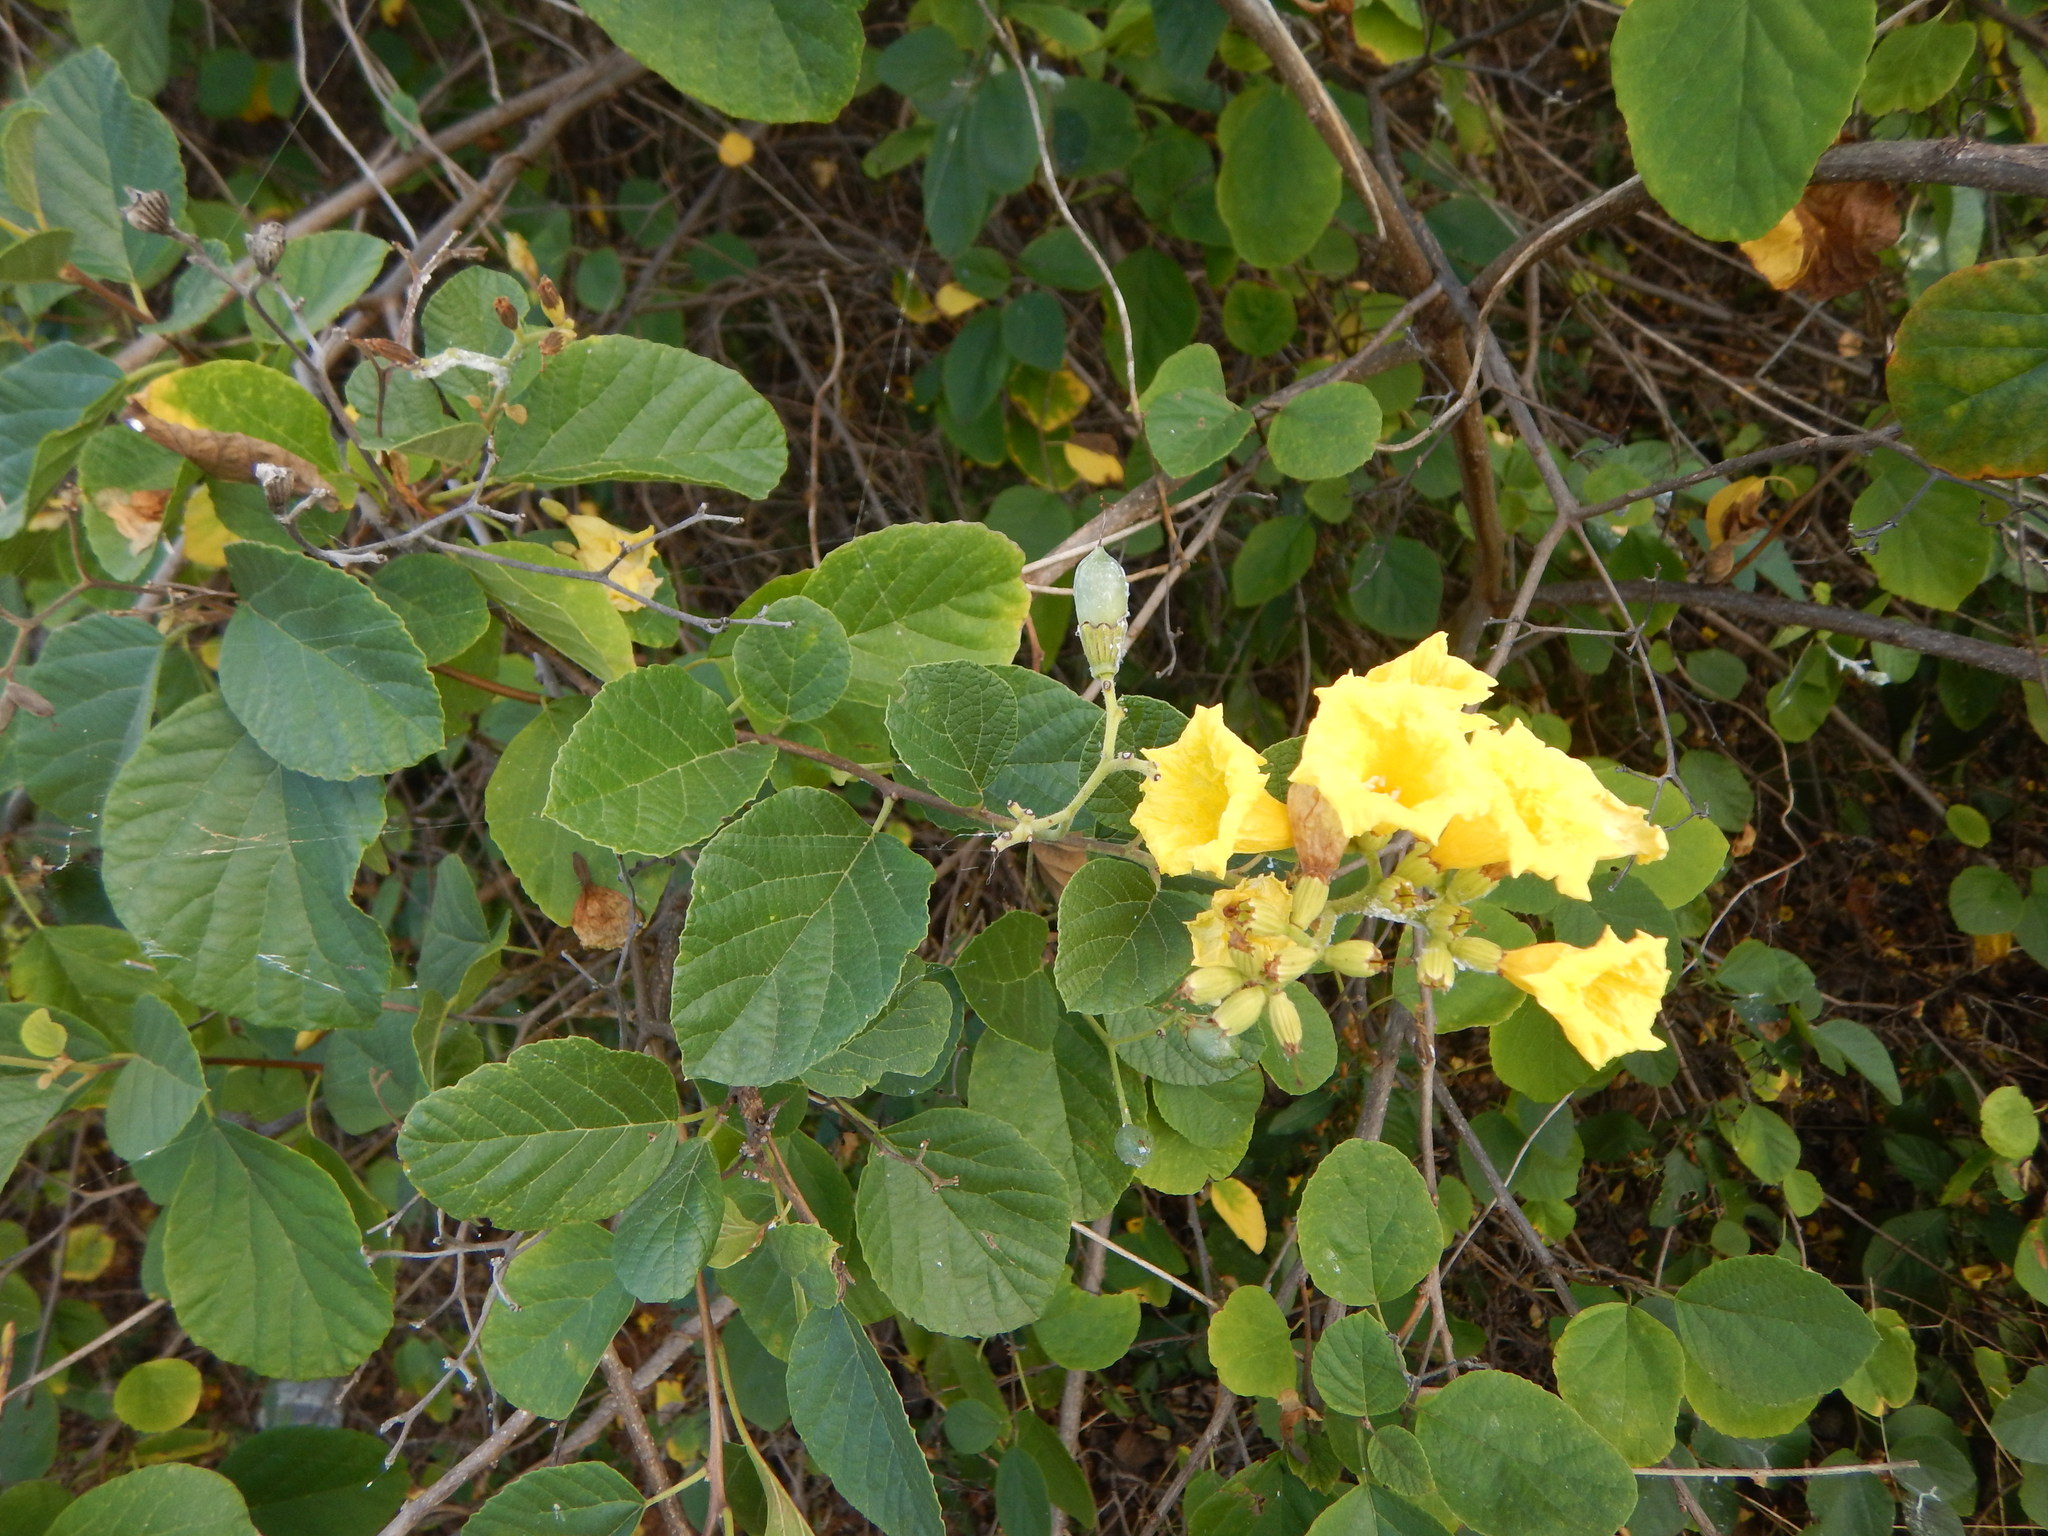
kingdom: Plantae
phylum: Tracheophyta
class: Magnoliopsida
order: Boraginales
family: Cordiaceae
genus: Cordia
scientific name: Cordia lutea
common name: Yellow geiger
